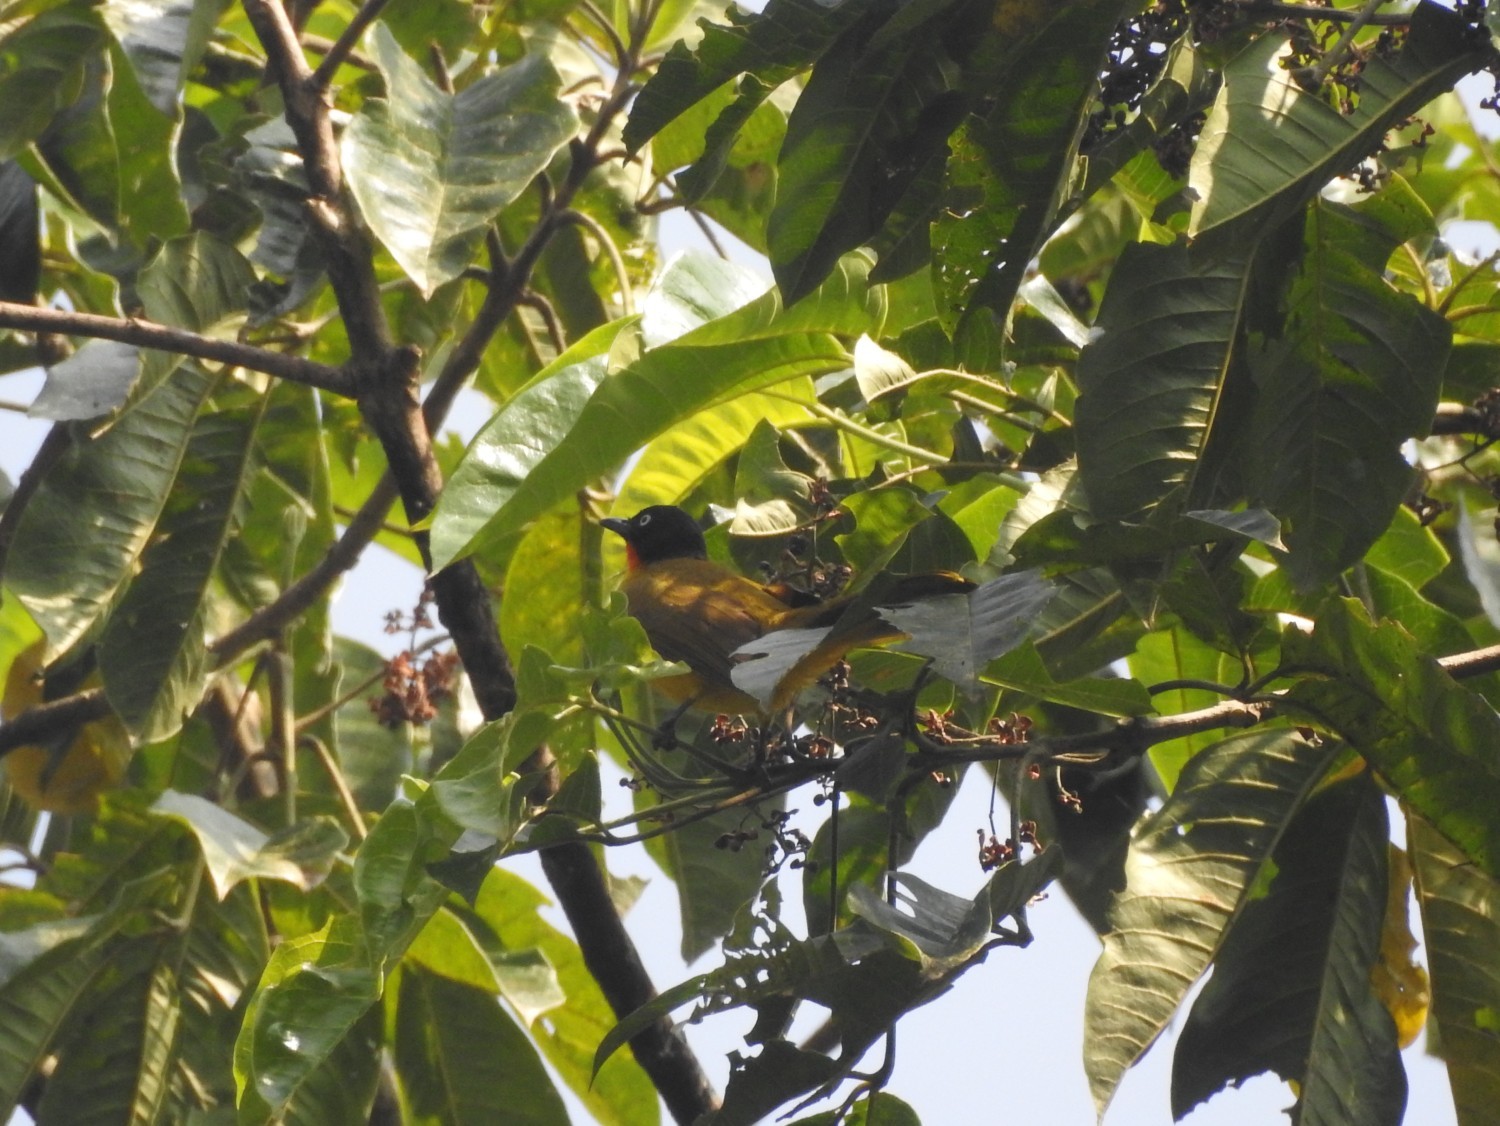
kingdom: Animalia
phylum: Chordata
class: Aves
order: Passeriformes
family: Pycnonotidae
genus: Pycnonotus
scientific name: Pycnonotus gularis
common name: Flame-throated bulbul
